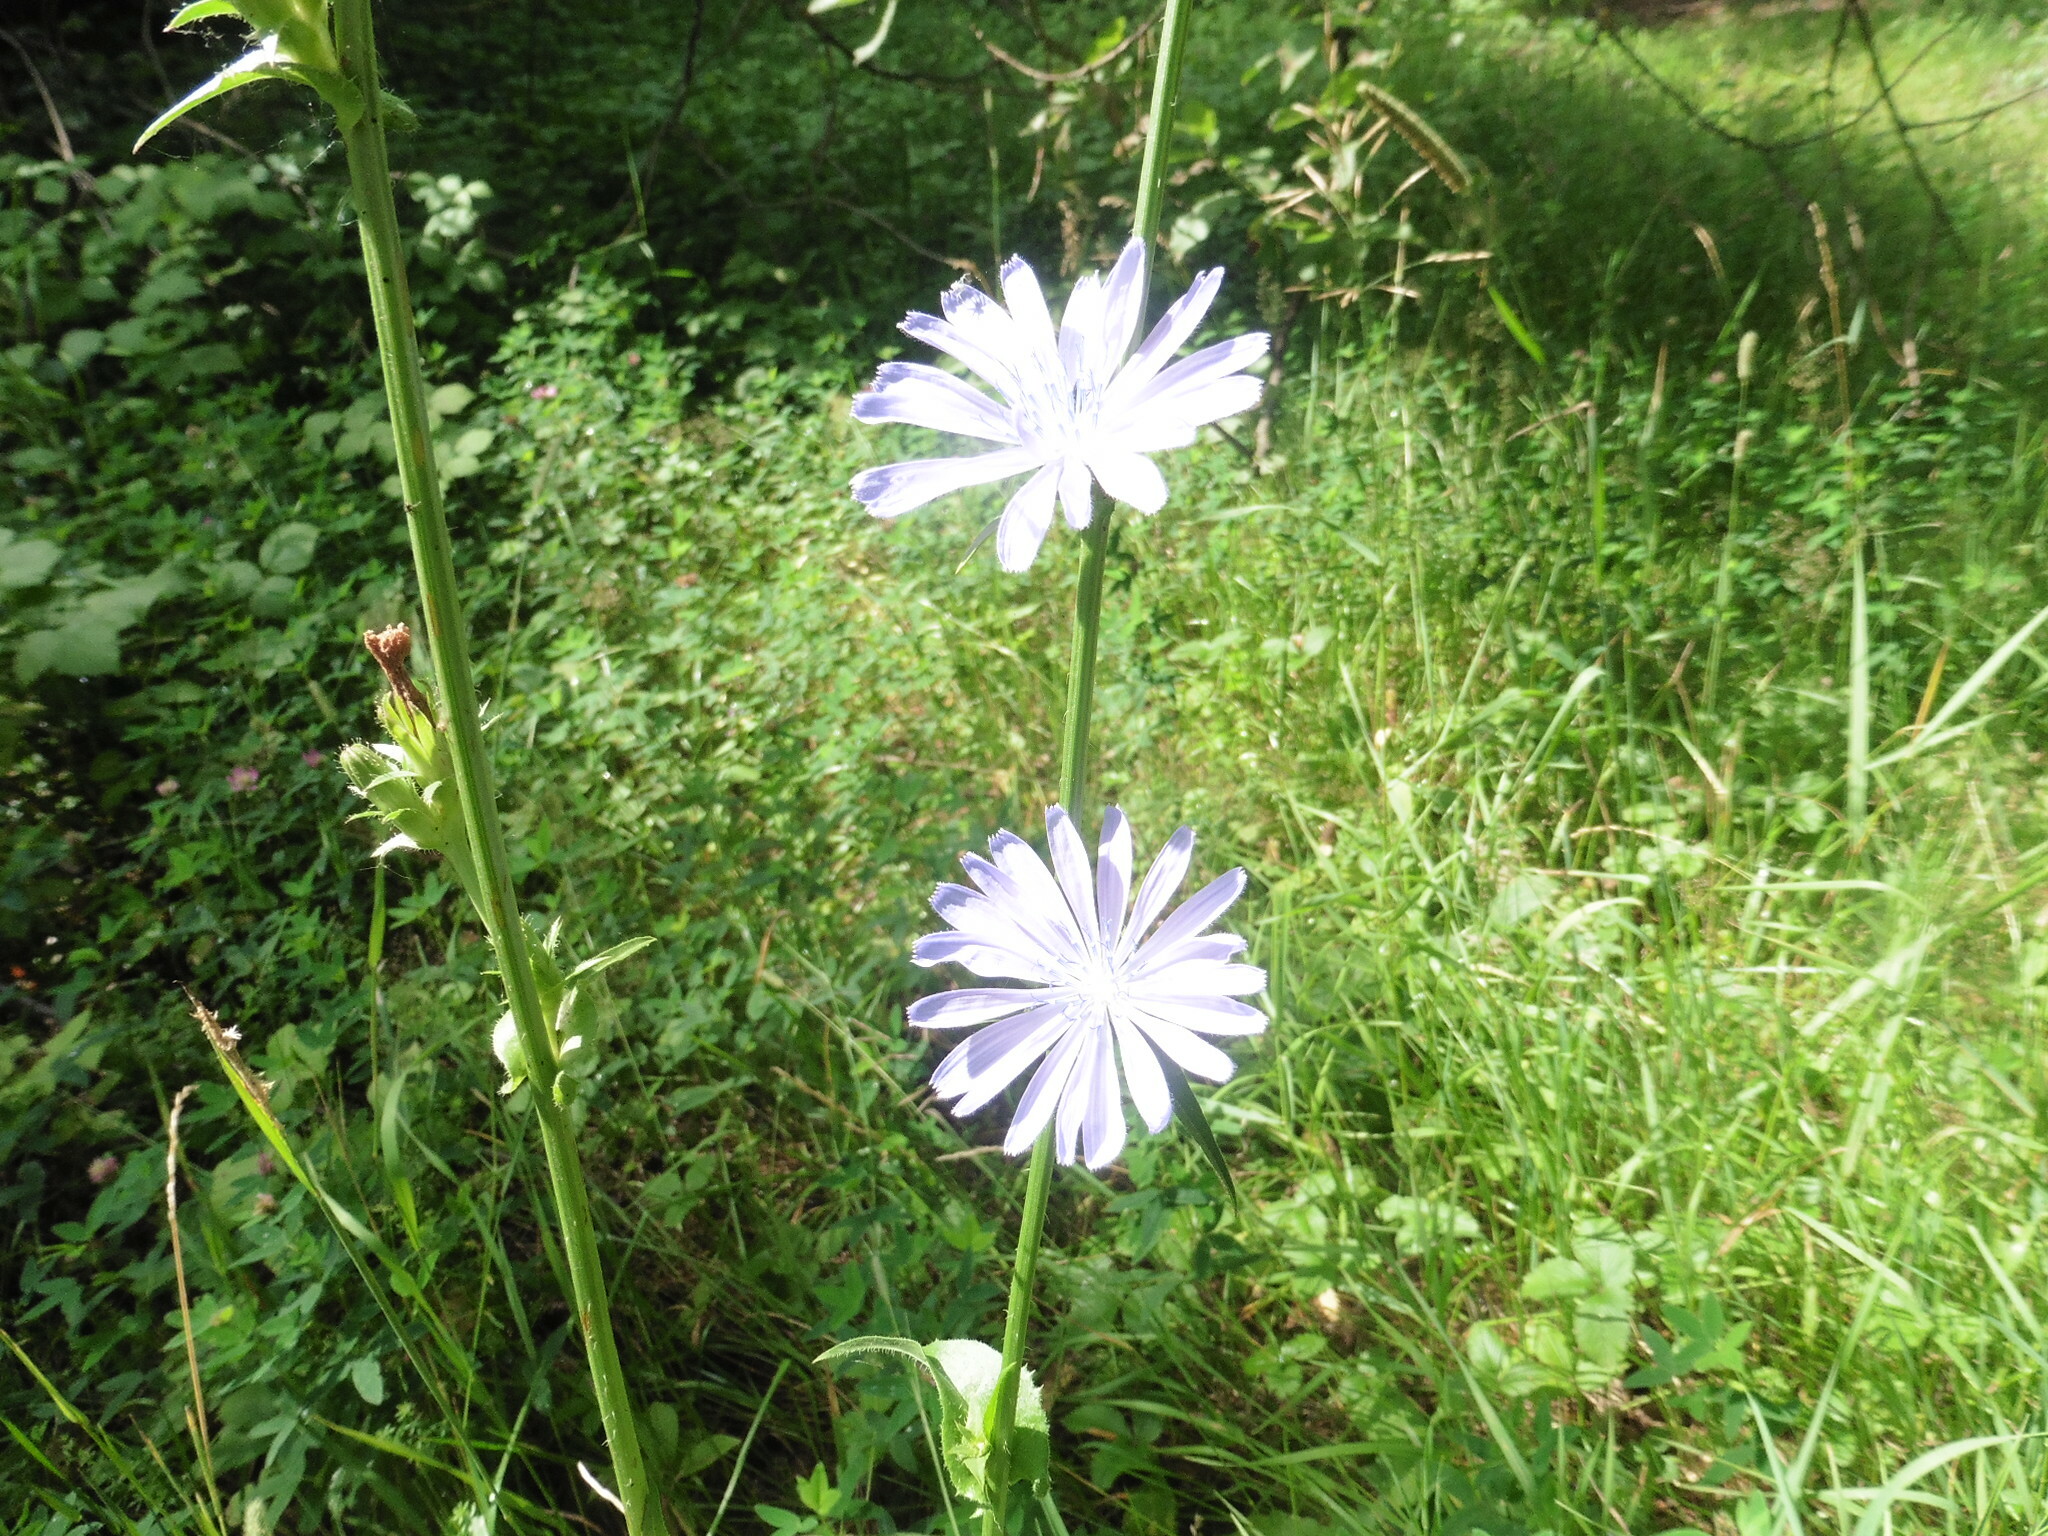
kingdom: Plantae
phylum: Tracheophyta
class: Magnoliopsida
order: Asterales
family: Asteraceae
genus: Cichorium
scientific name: Cichorium intybus
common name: Chicory
